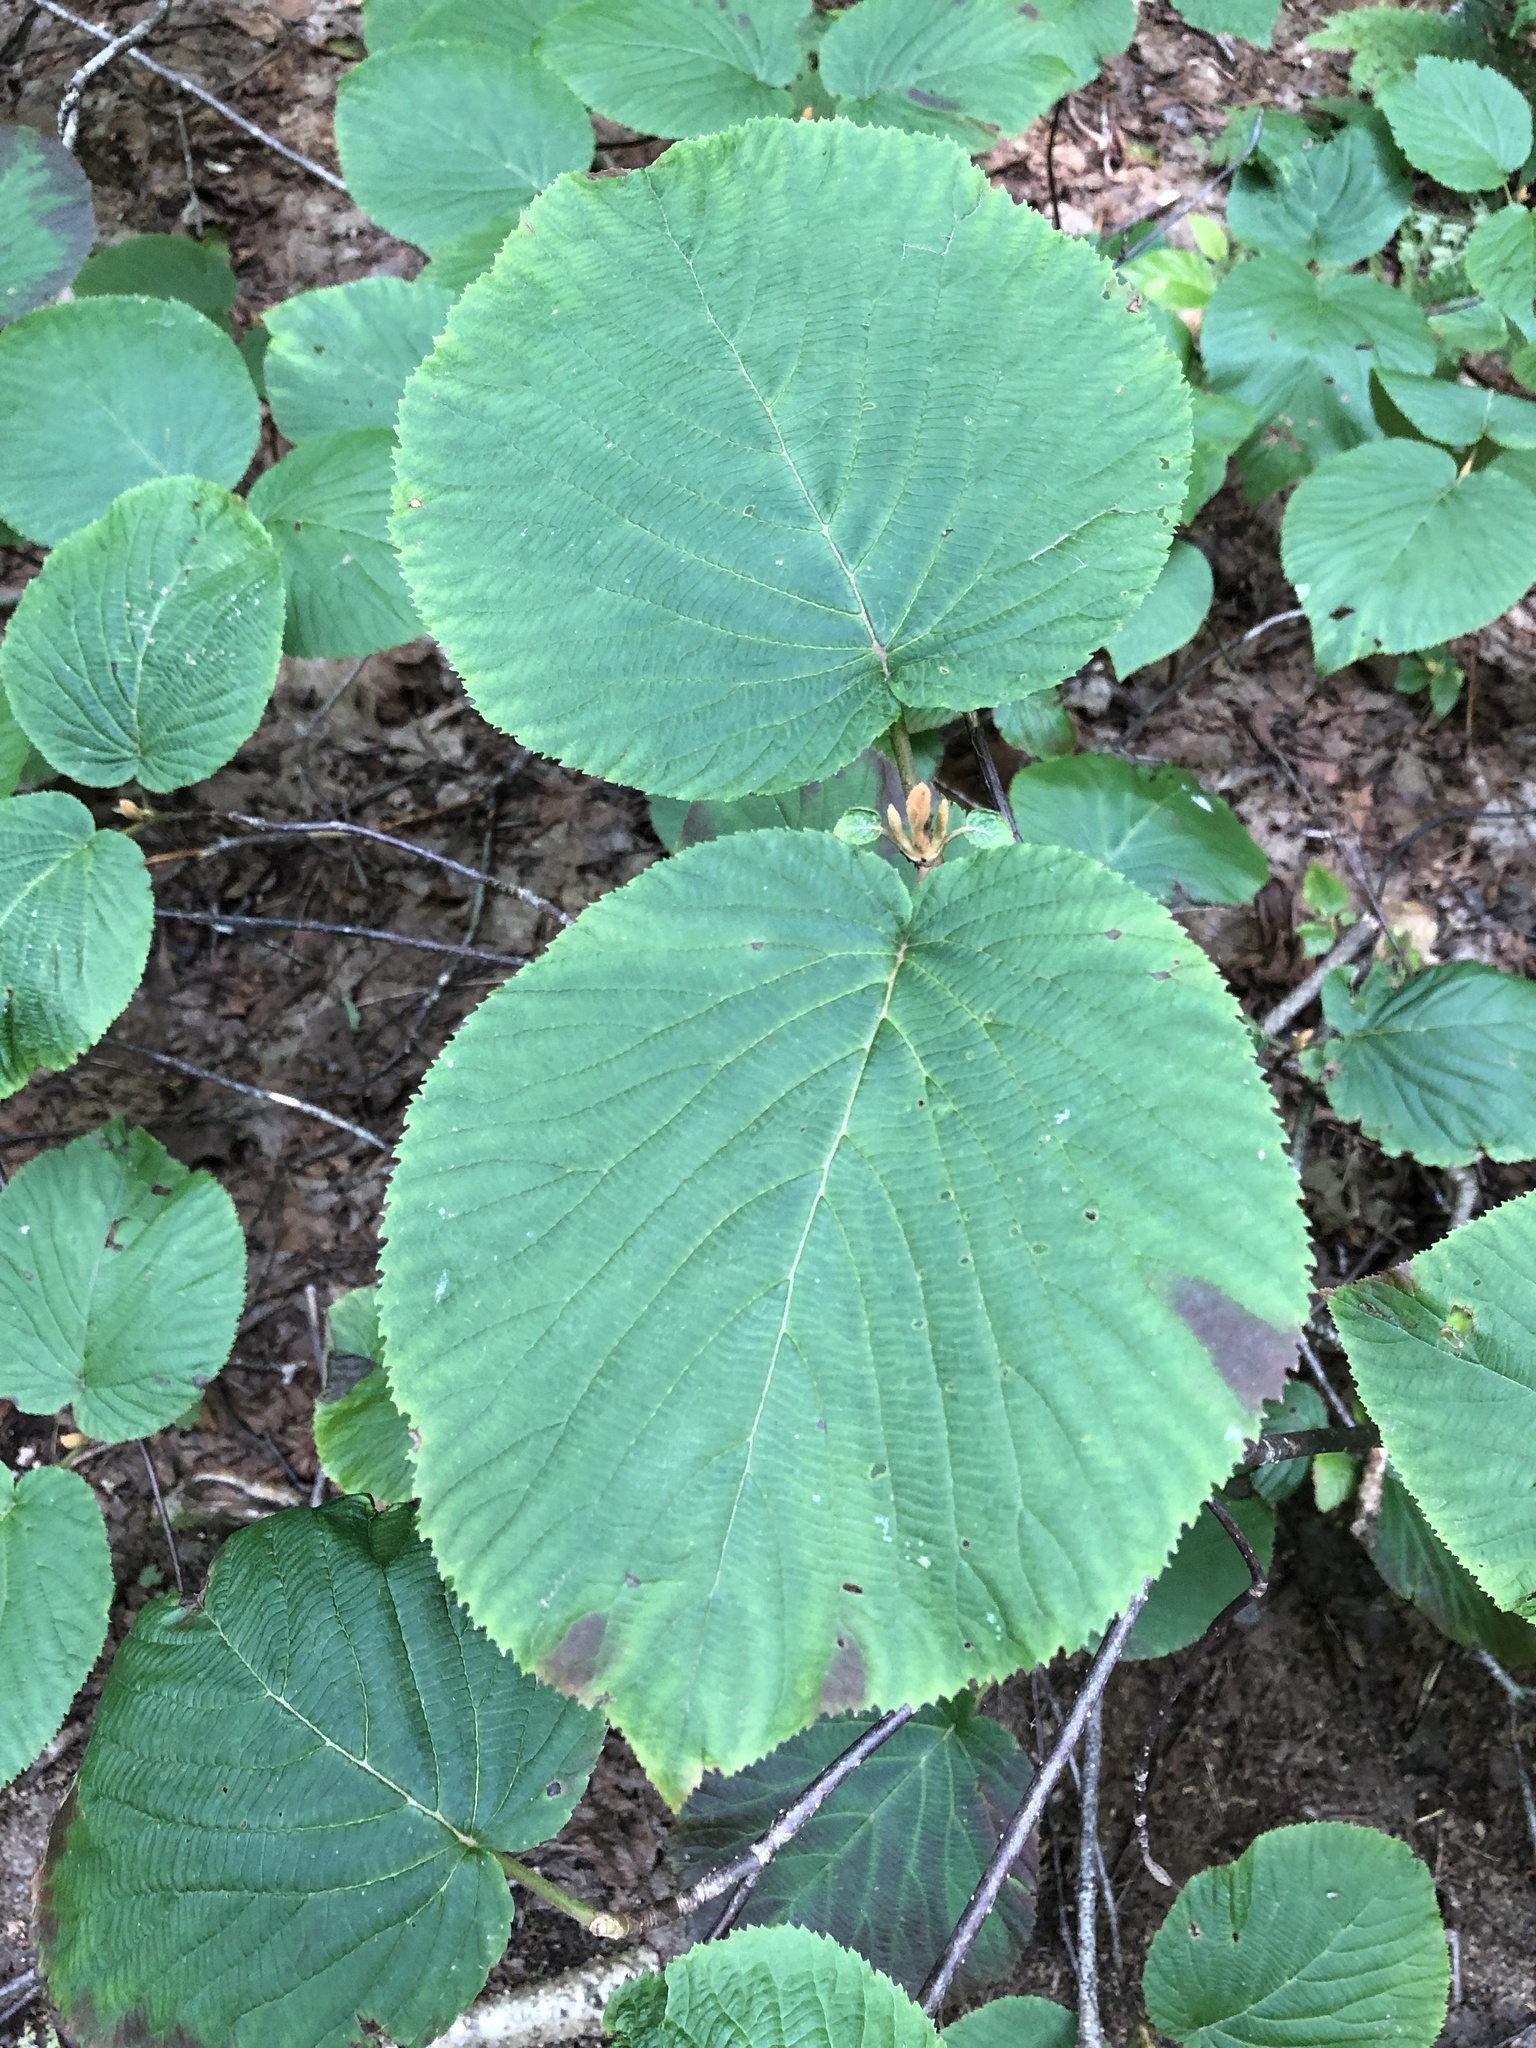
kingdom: Plantae
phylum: Tracheophyta
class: Magnoliopsida
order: Dipsacales
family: Viburnaceae
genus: Viburnum
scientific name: Viburnum lantanoides
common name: Hobblebush
